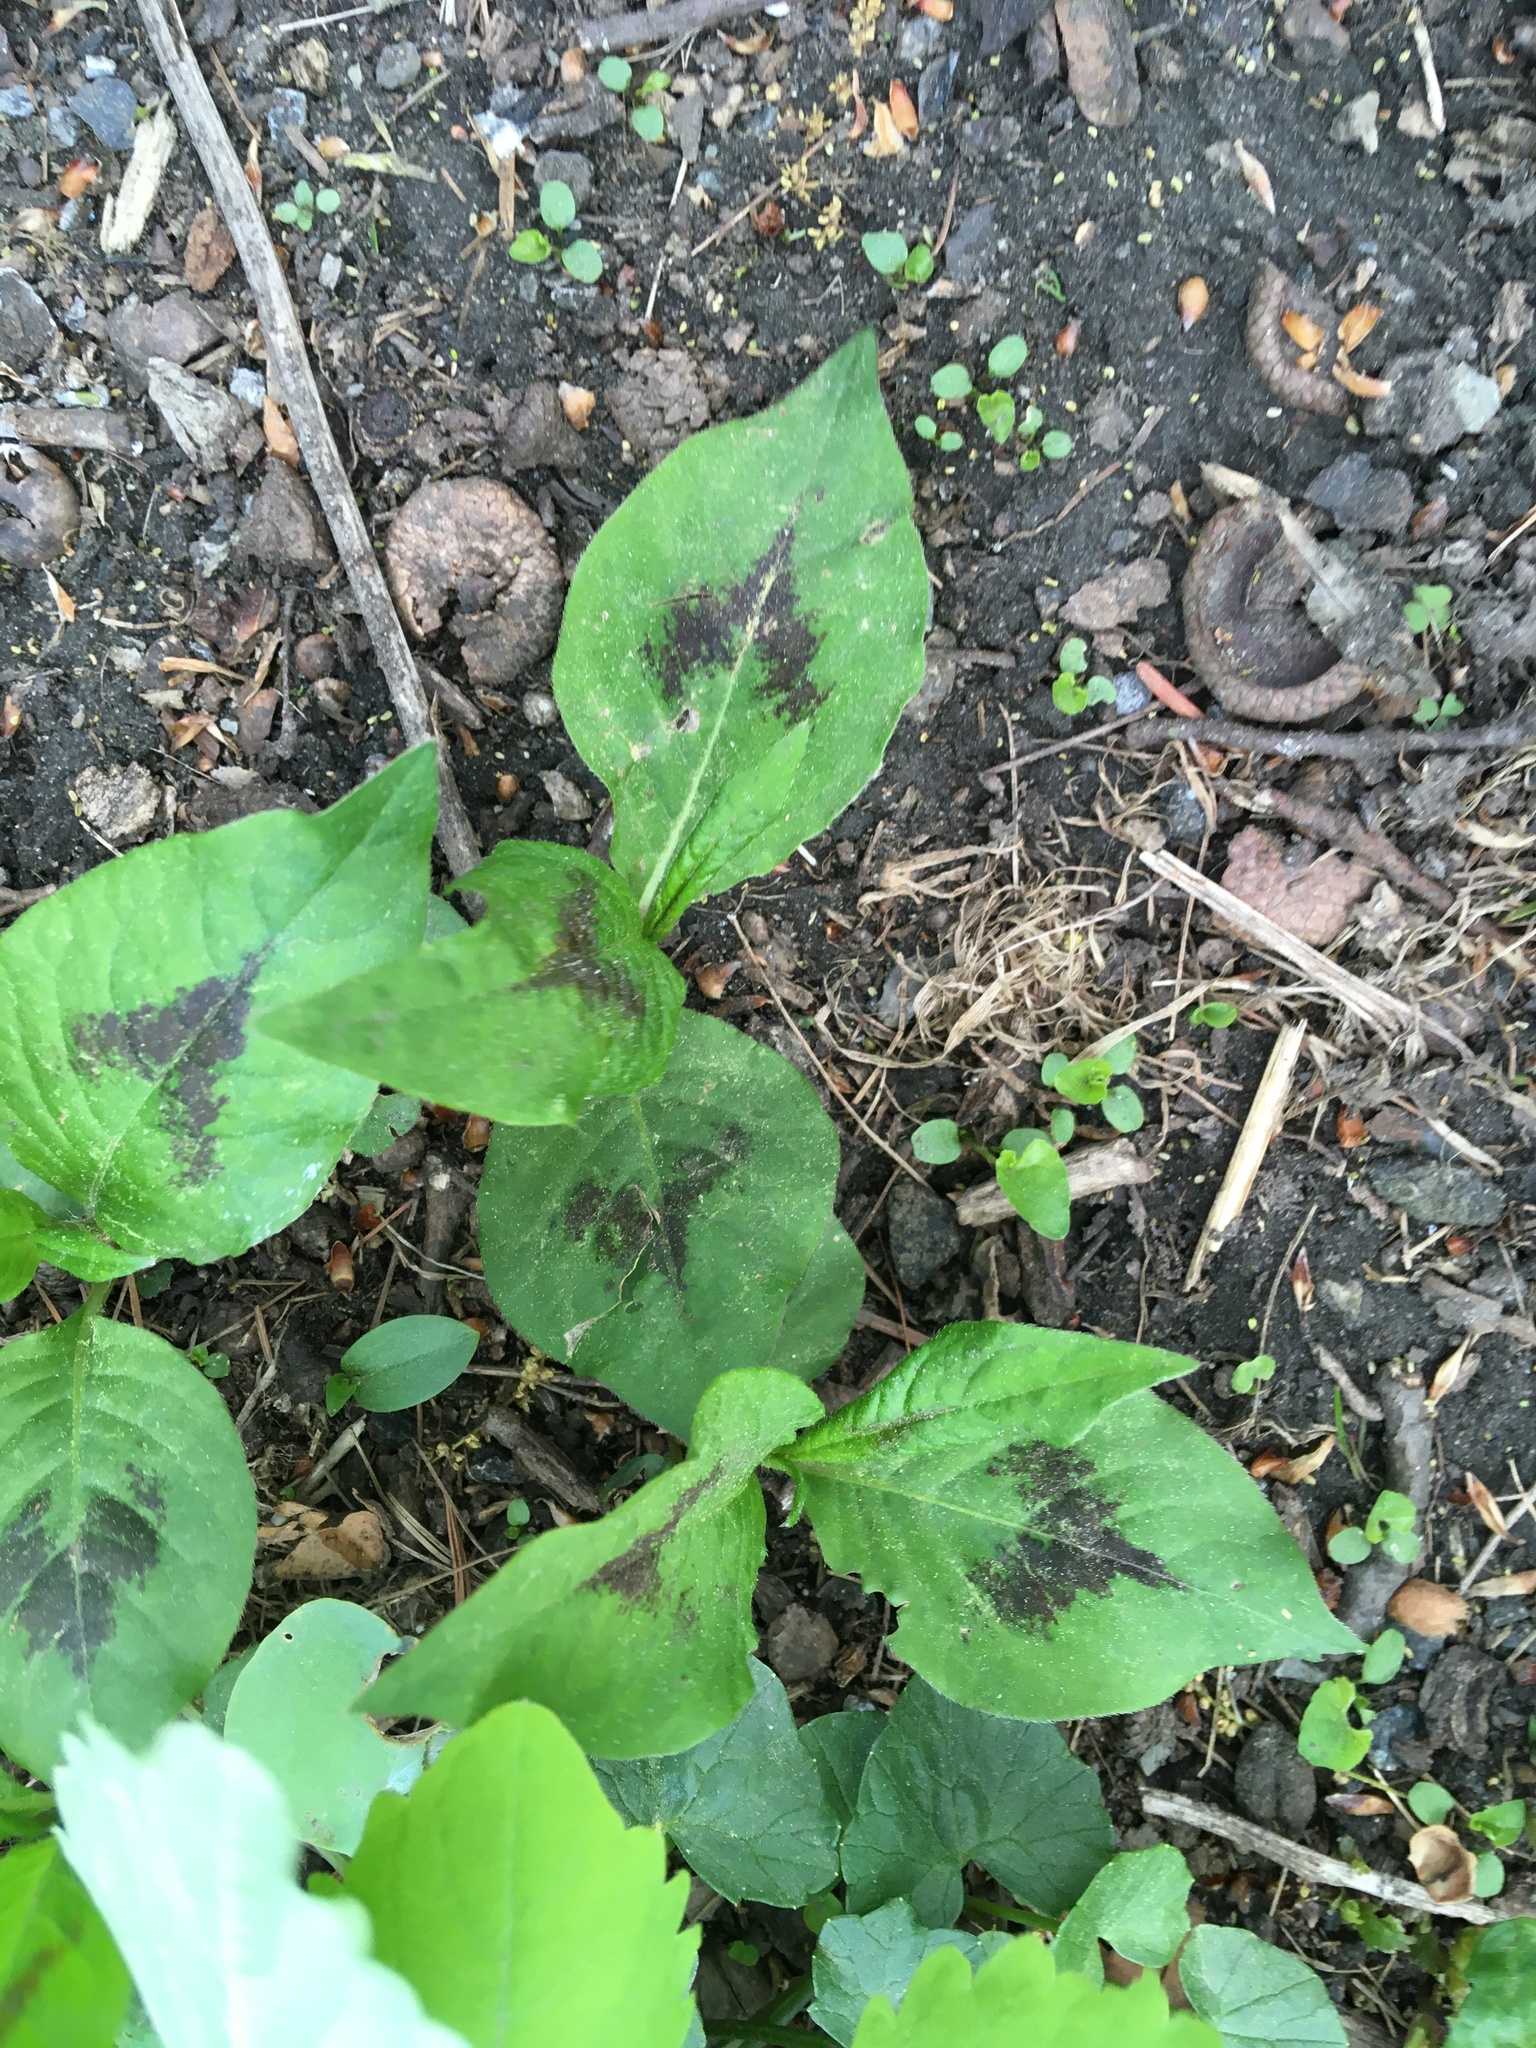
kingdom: Plantae
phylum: Tracheophyta
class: Magnoliopsida
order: Caryophyllales
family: Polygonaceae
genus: Persicaria
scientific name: Persicaria virginiana
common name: Jumpseed
